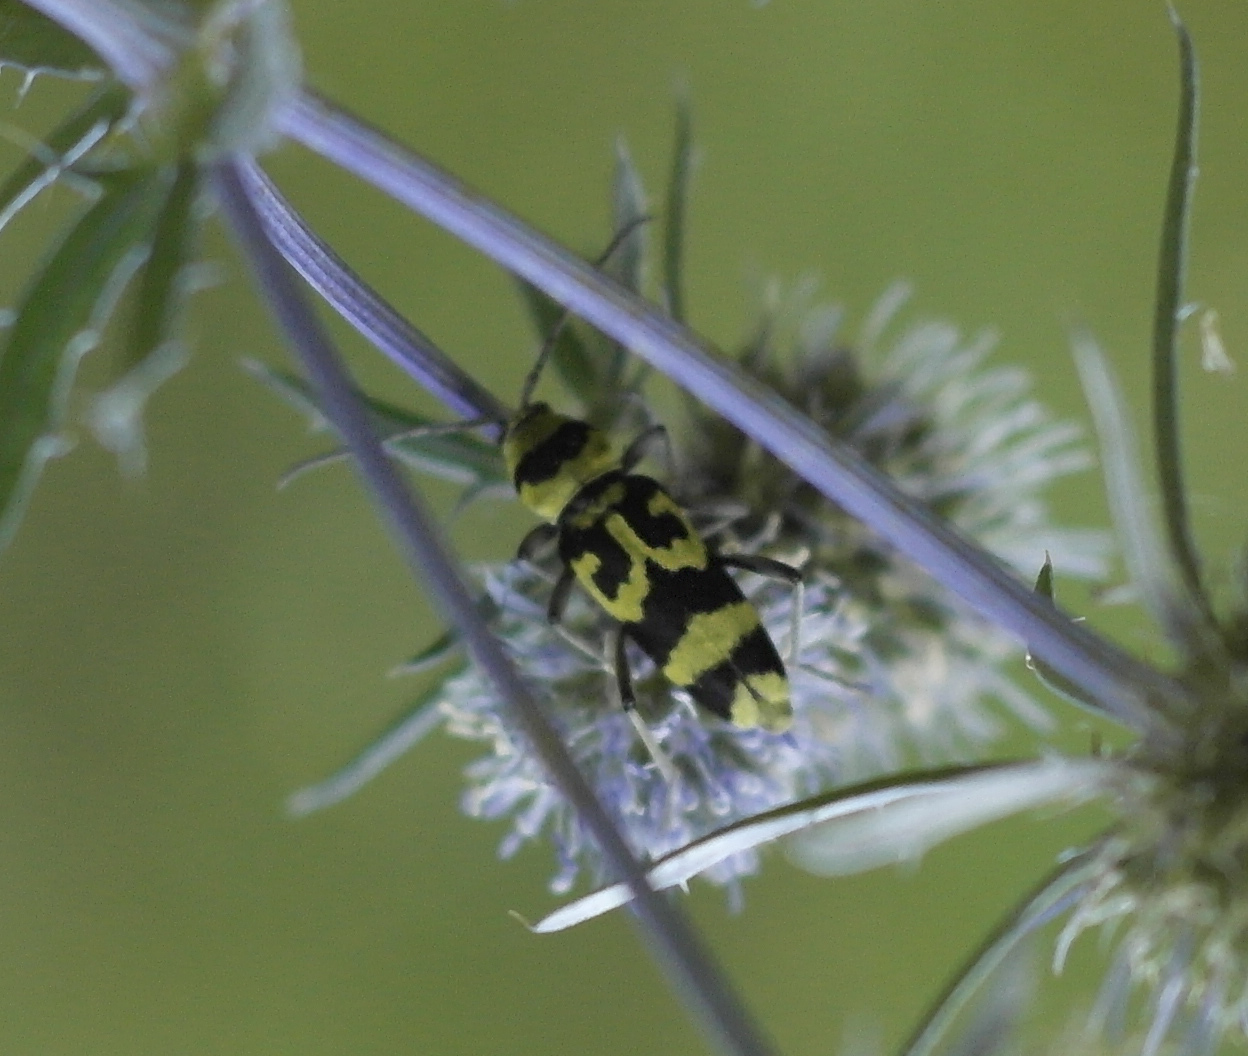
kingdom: Animalia
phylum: Arthropoda
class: Insecta
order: Coleoptera
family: Cerambycidae
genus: Chlorophorus
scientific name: Chlorophorus varius
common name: Grape wood borer
